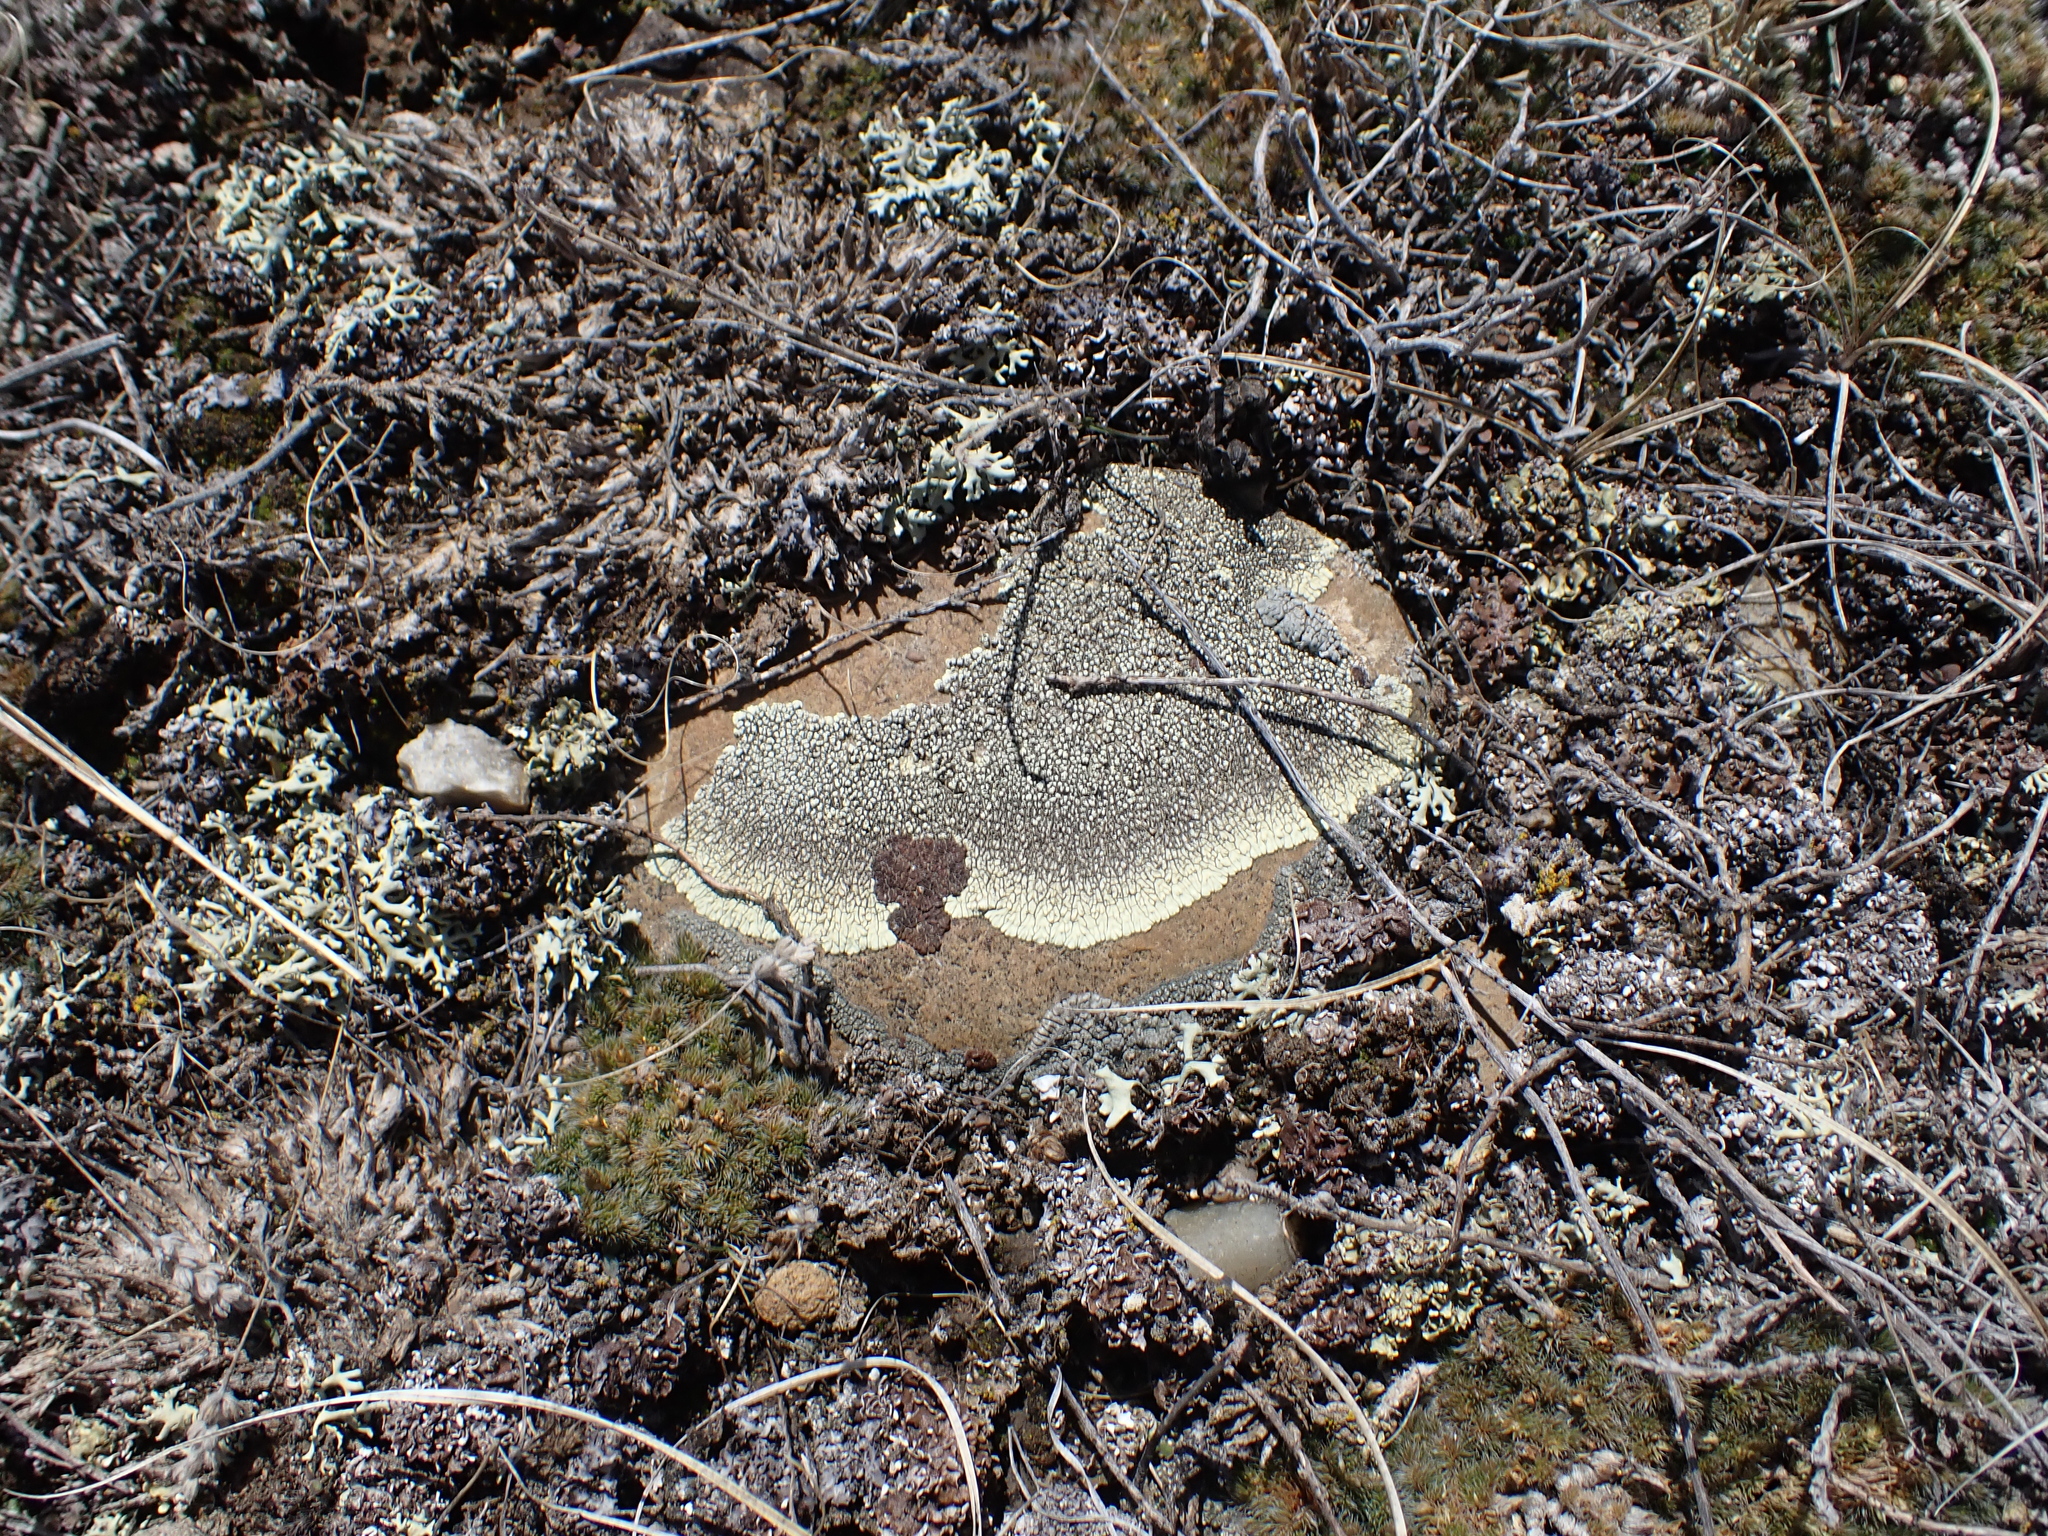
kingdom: Fungi
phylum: Ascomycota
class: Lecanoromycetes
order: Caliciales
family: Caliciaceae
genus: Dimelaena
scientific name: Dimelaena oreina
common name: Golden moonglow lichen
